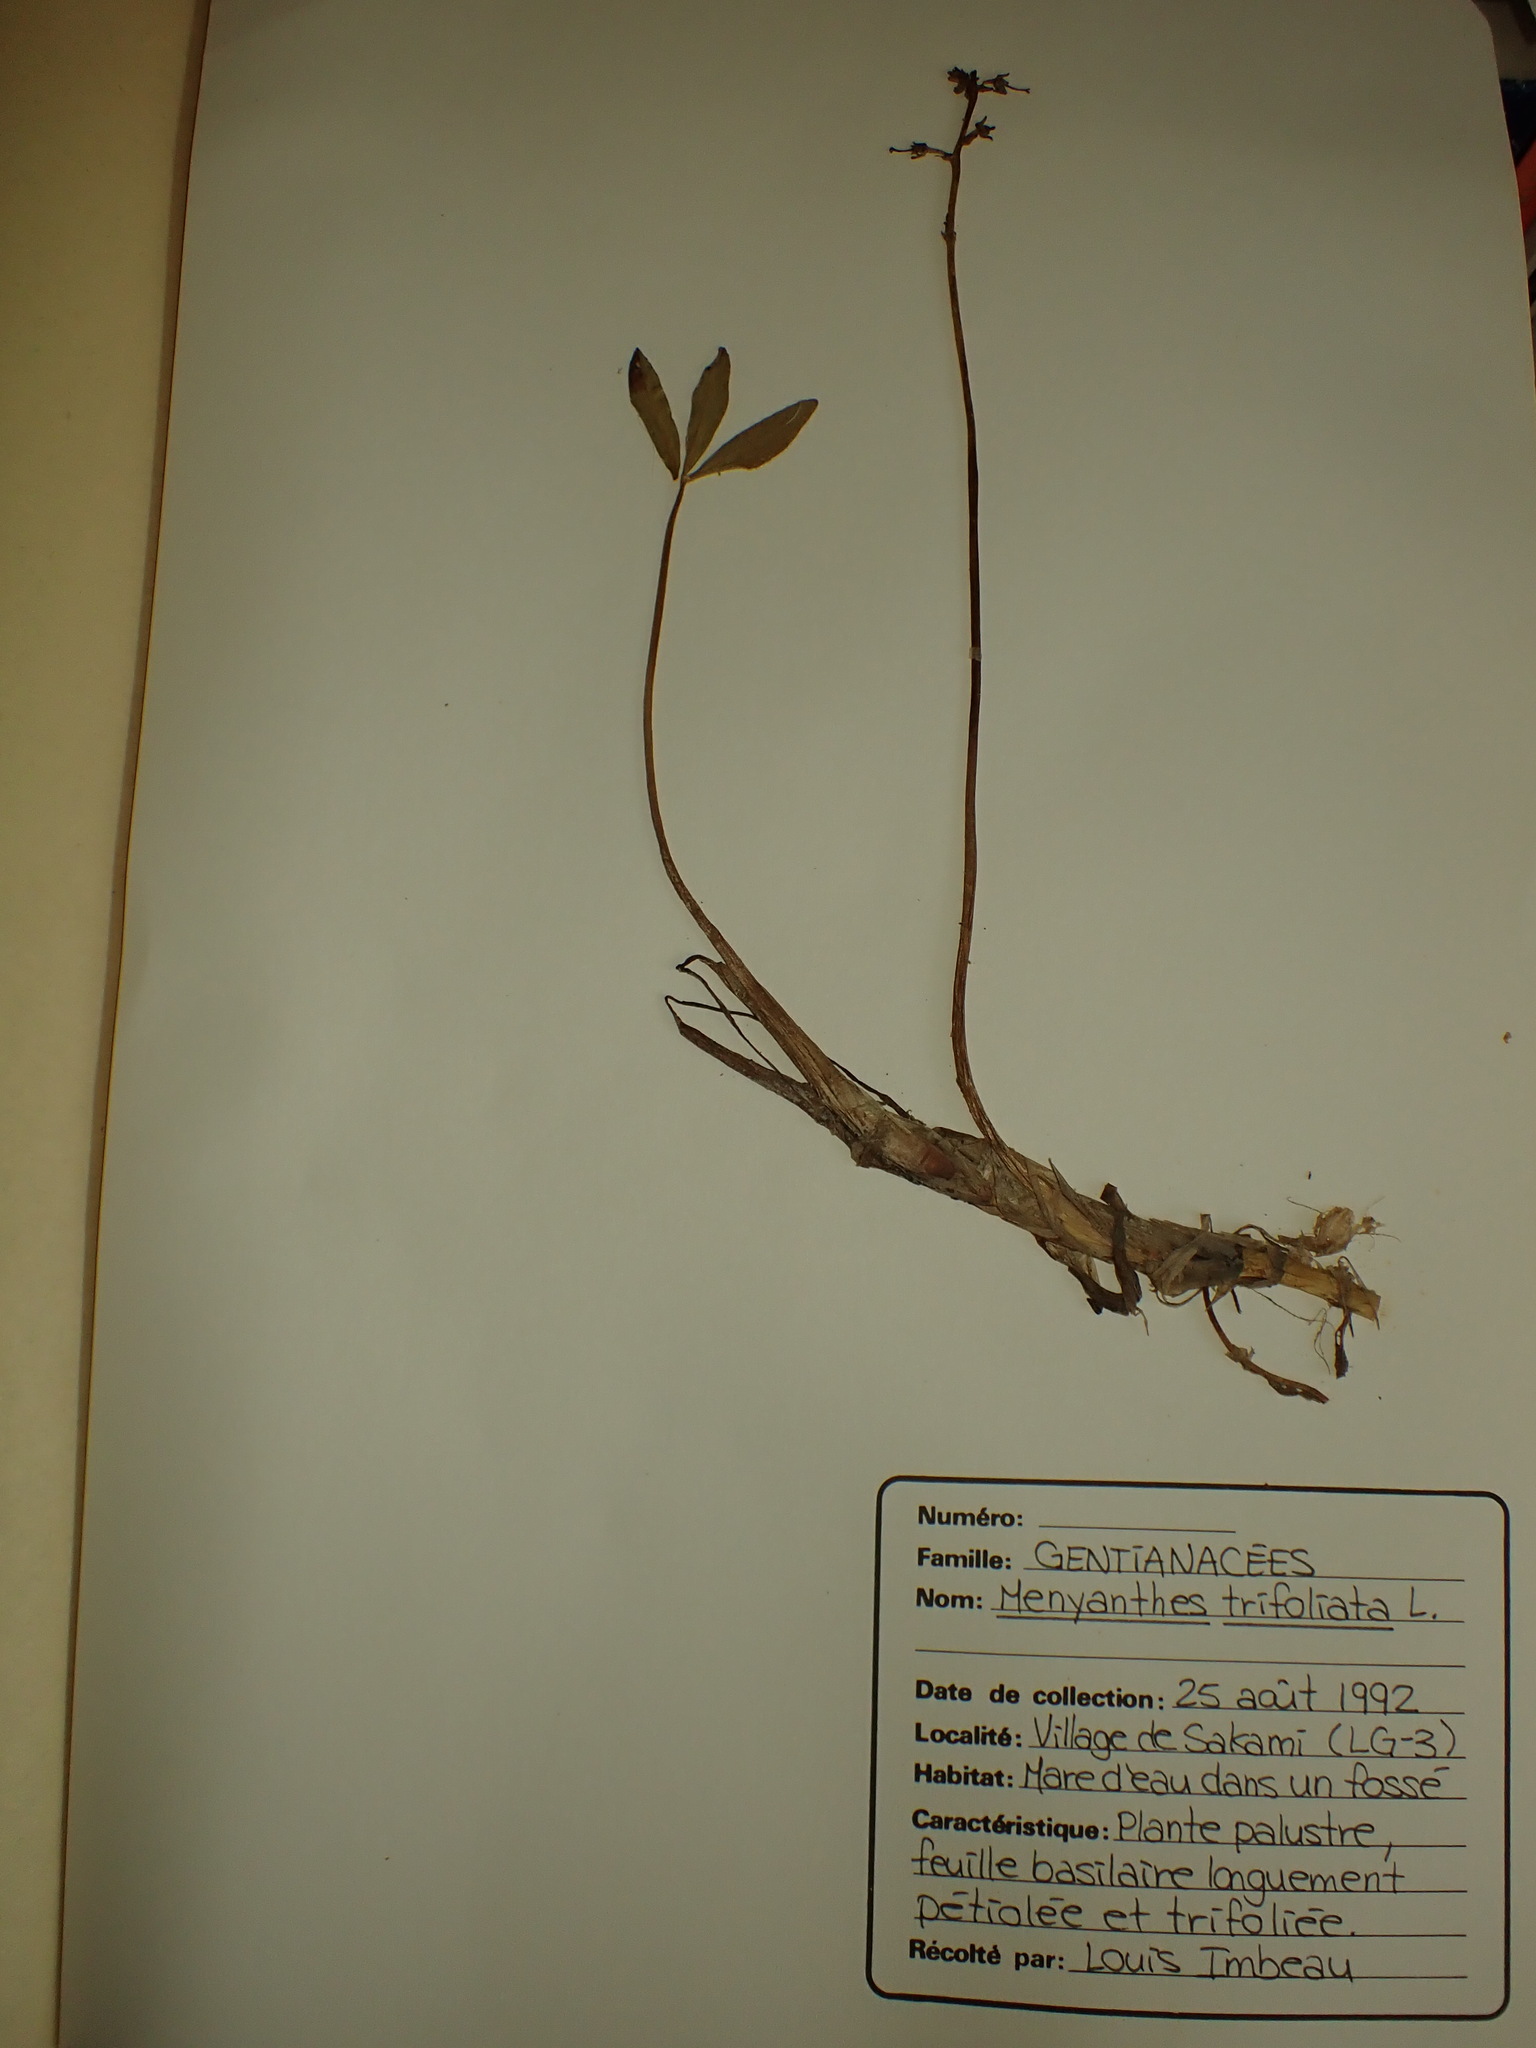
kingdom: Plantae
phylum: Tracheophyta
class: Magnoliopsida
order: Asterales
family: Menyanthaceae
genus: Menyanthes
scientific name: Menyanthes trifoliata
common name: Bogbean
